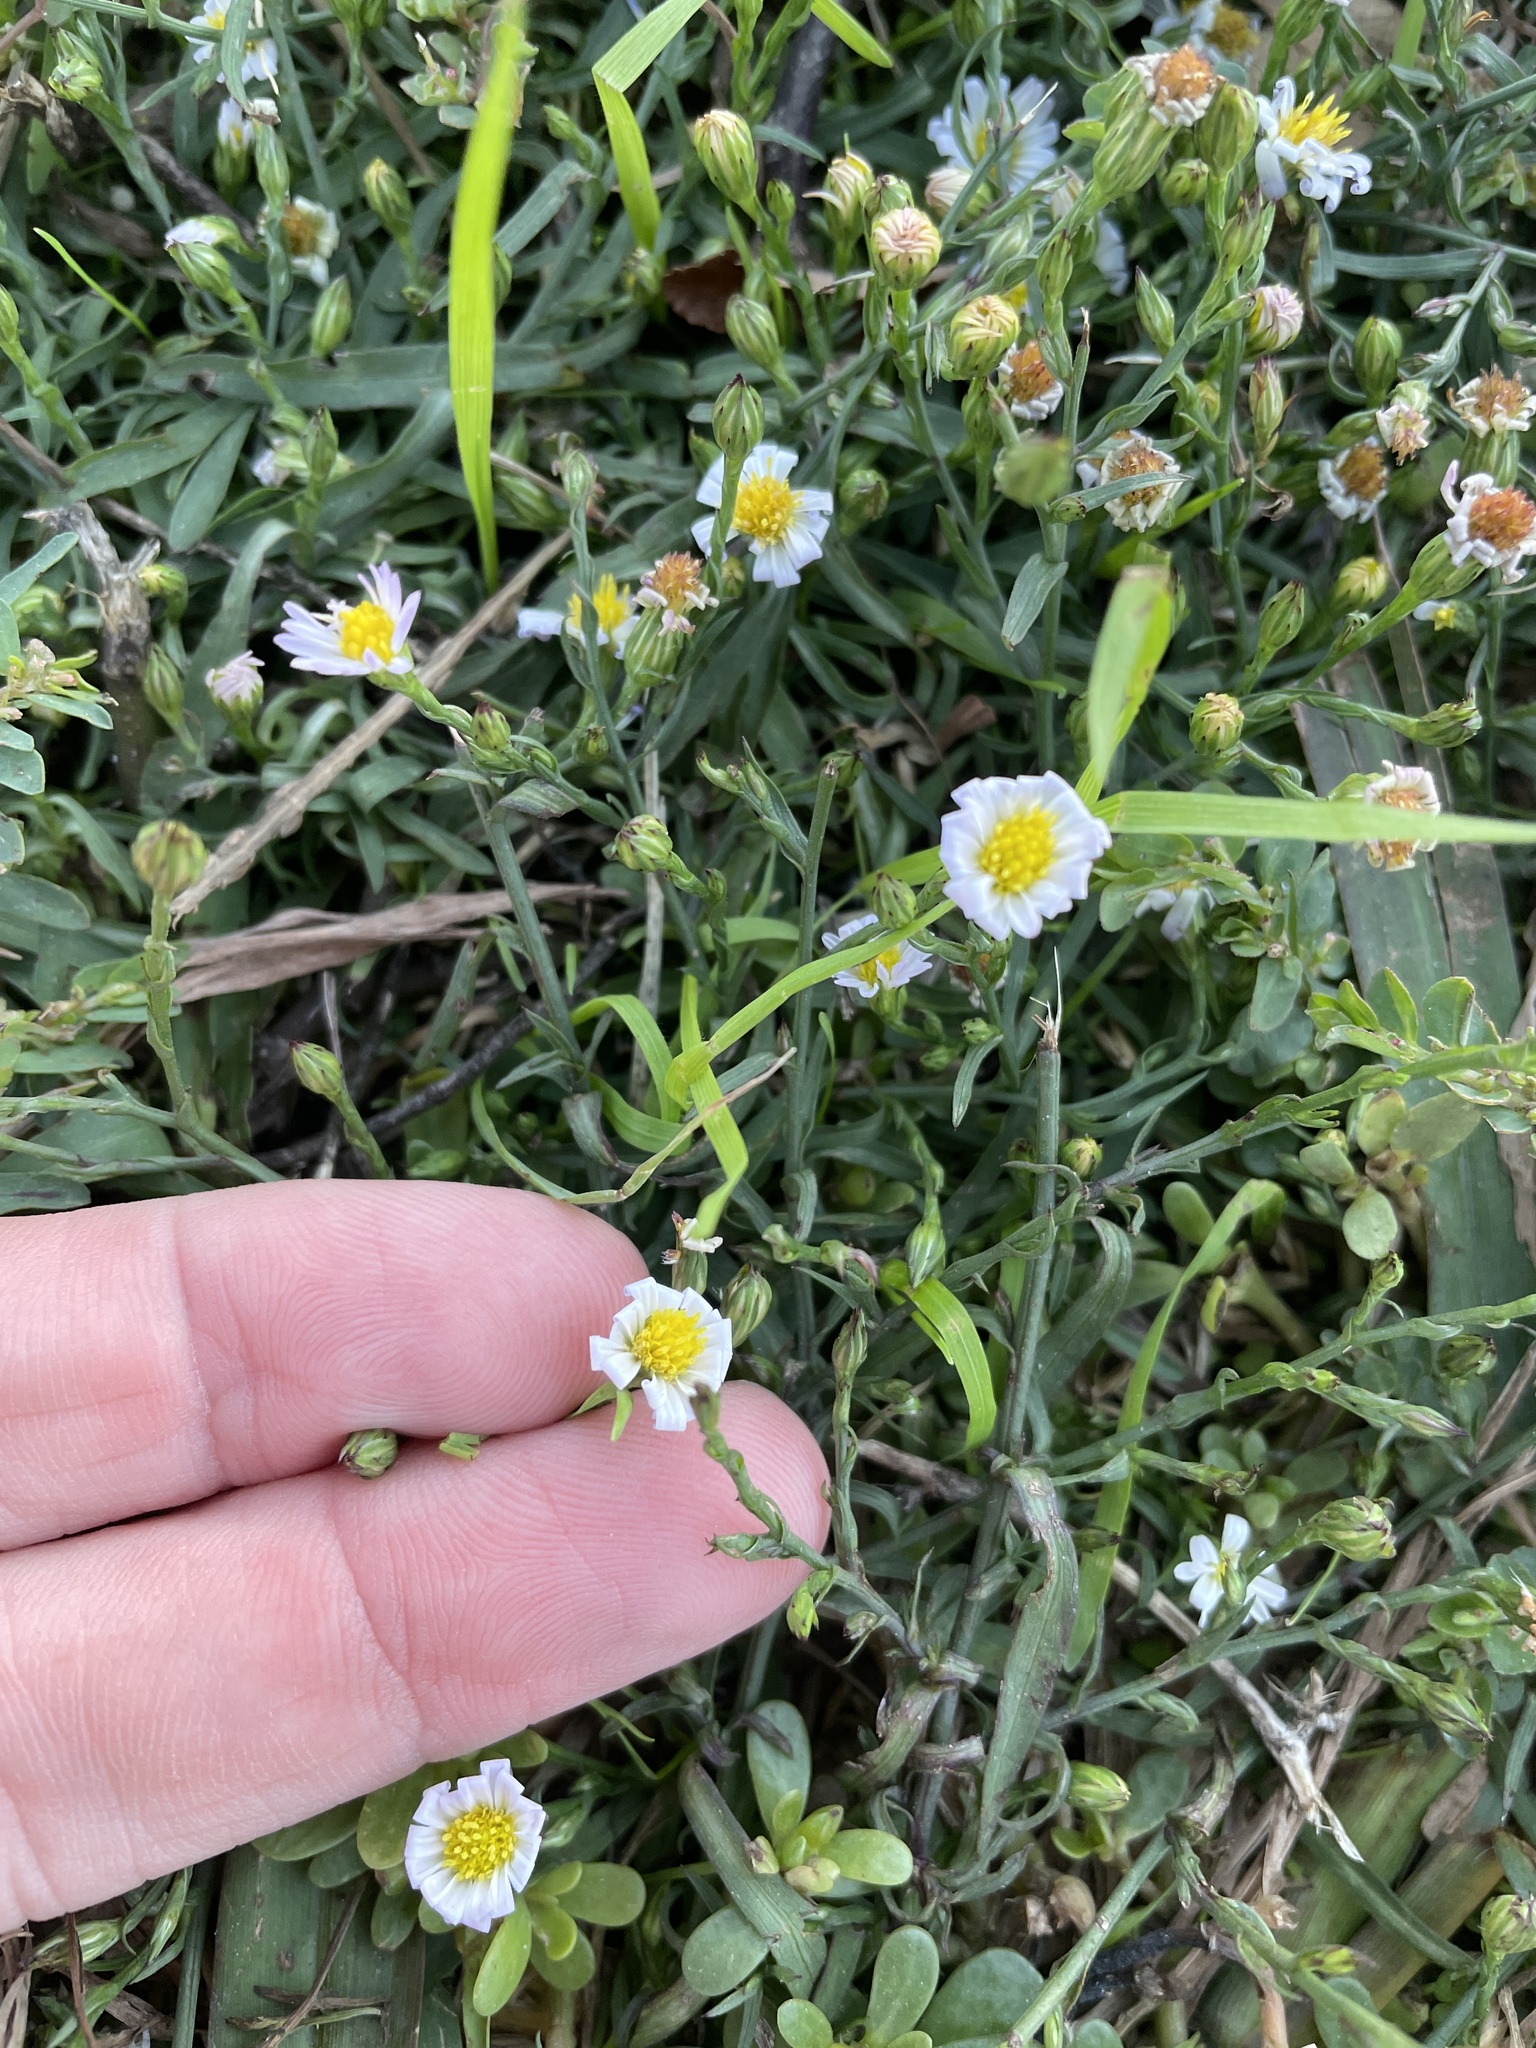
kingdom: Plantae
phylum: Tracheophyta
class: Magnoliopsida
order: Asterales
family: Asteraceae
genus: Symphyotrichum
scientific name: Symphyotrichum divaricatum
